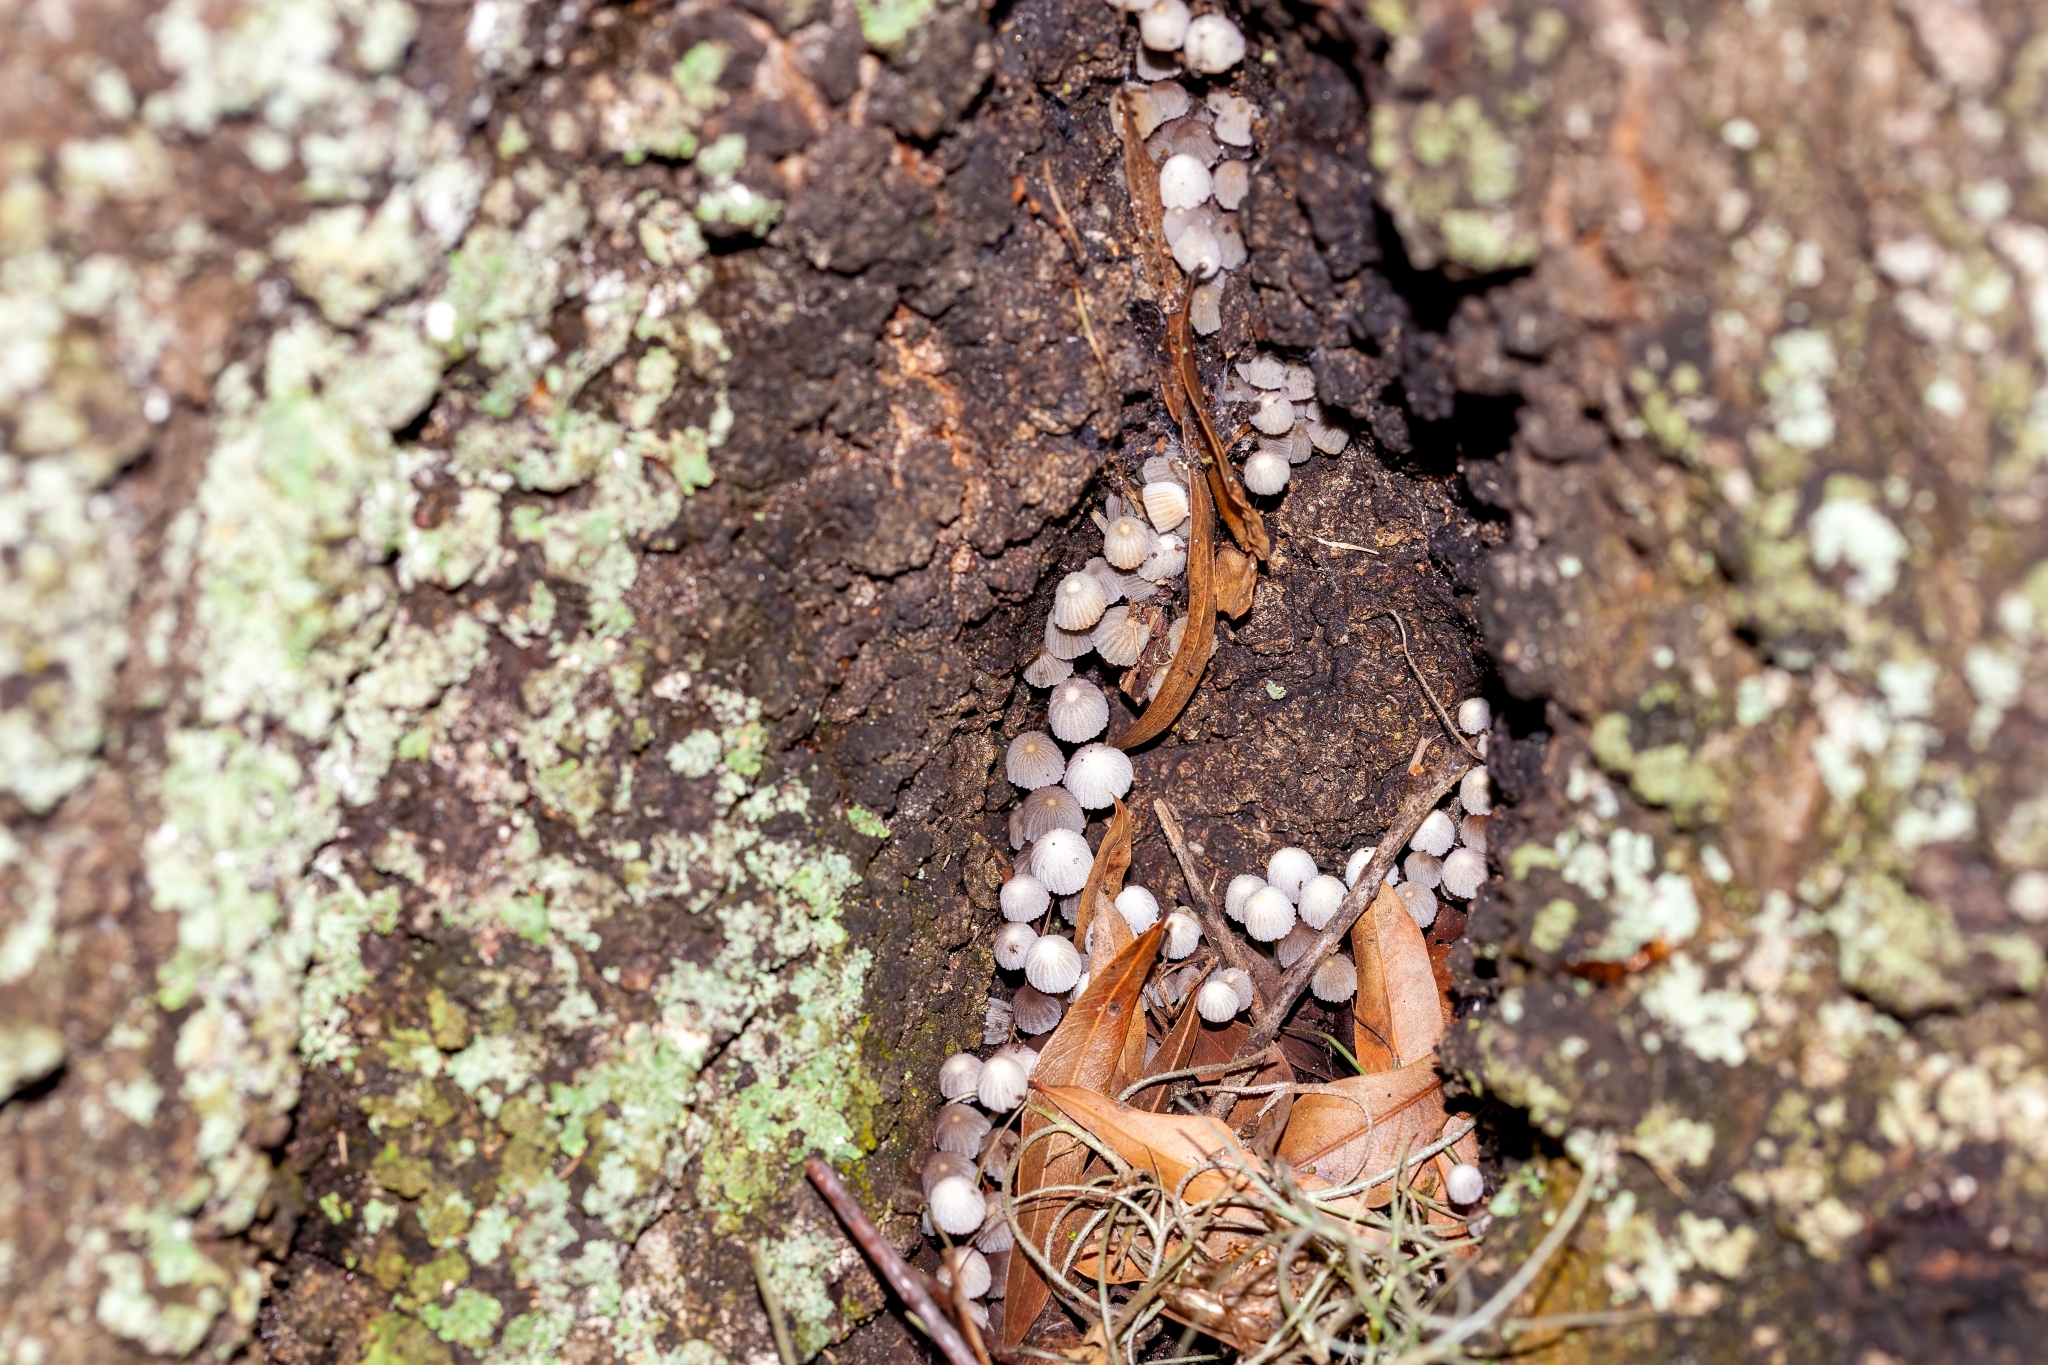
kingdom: Fungi
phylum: Basidiomycota
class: Agaricomycetes
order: Agaricales
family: Psathyrellaceae
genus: Coprinellus
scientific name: Coprinellus disseminatus
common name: Fairies' bonnets
